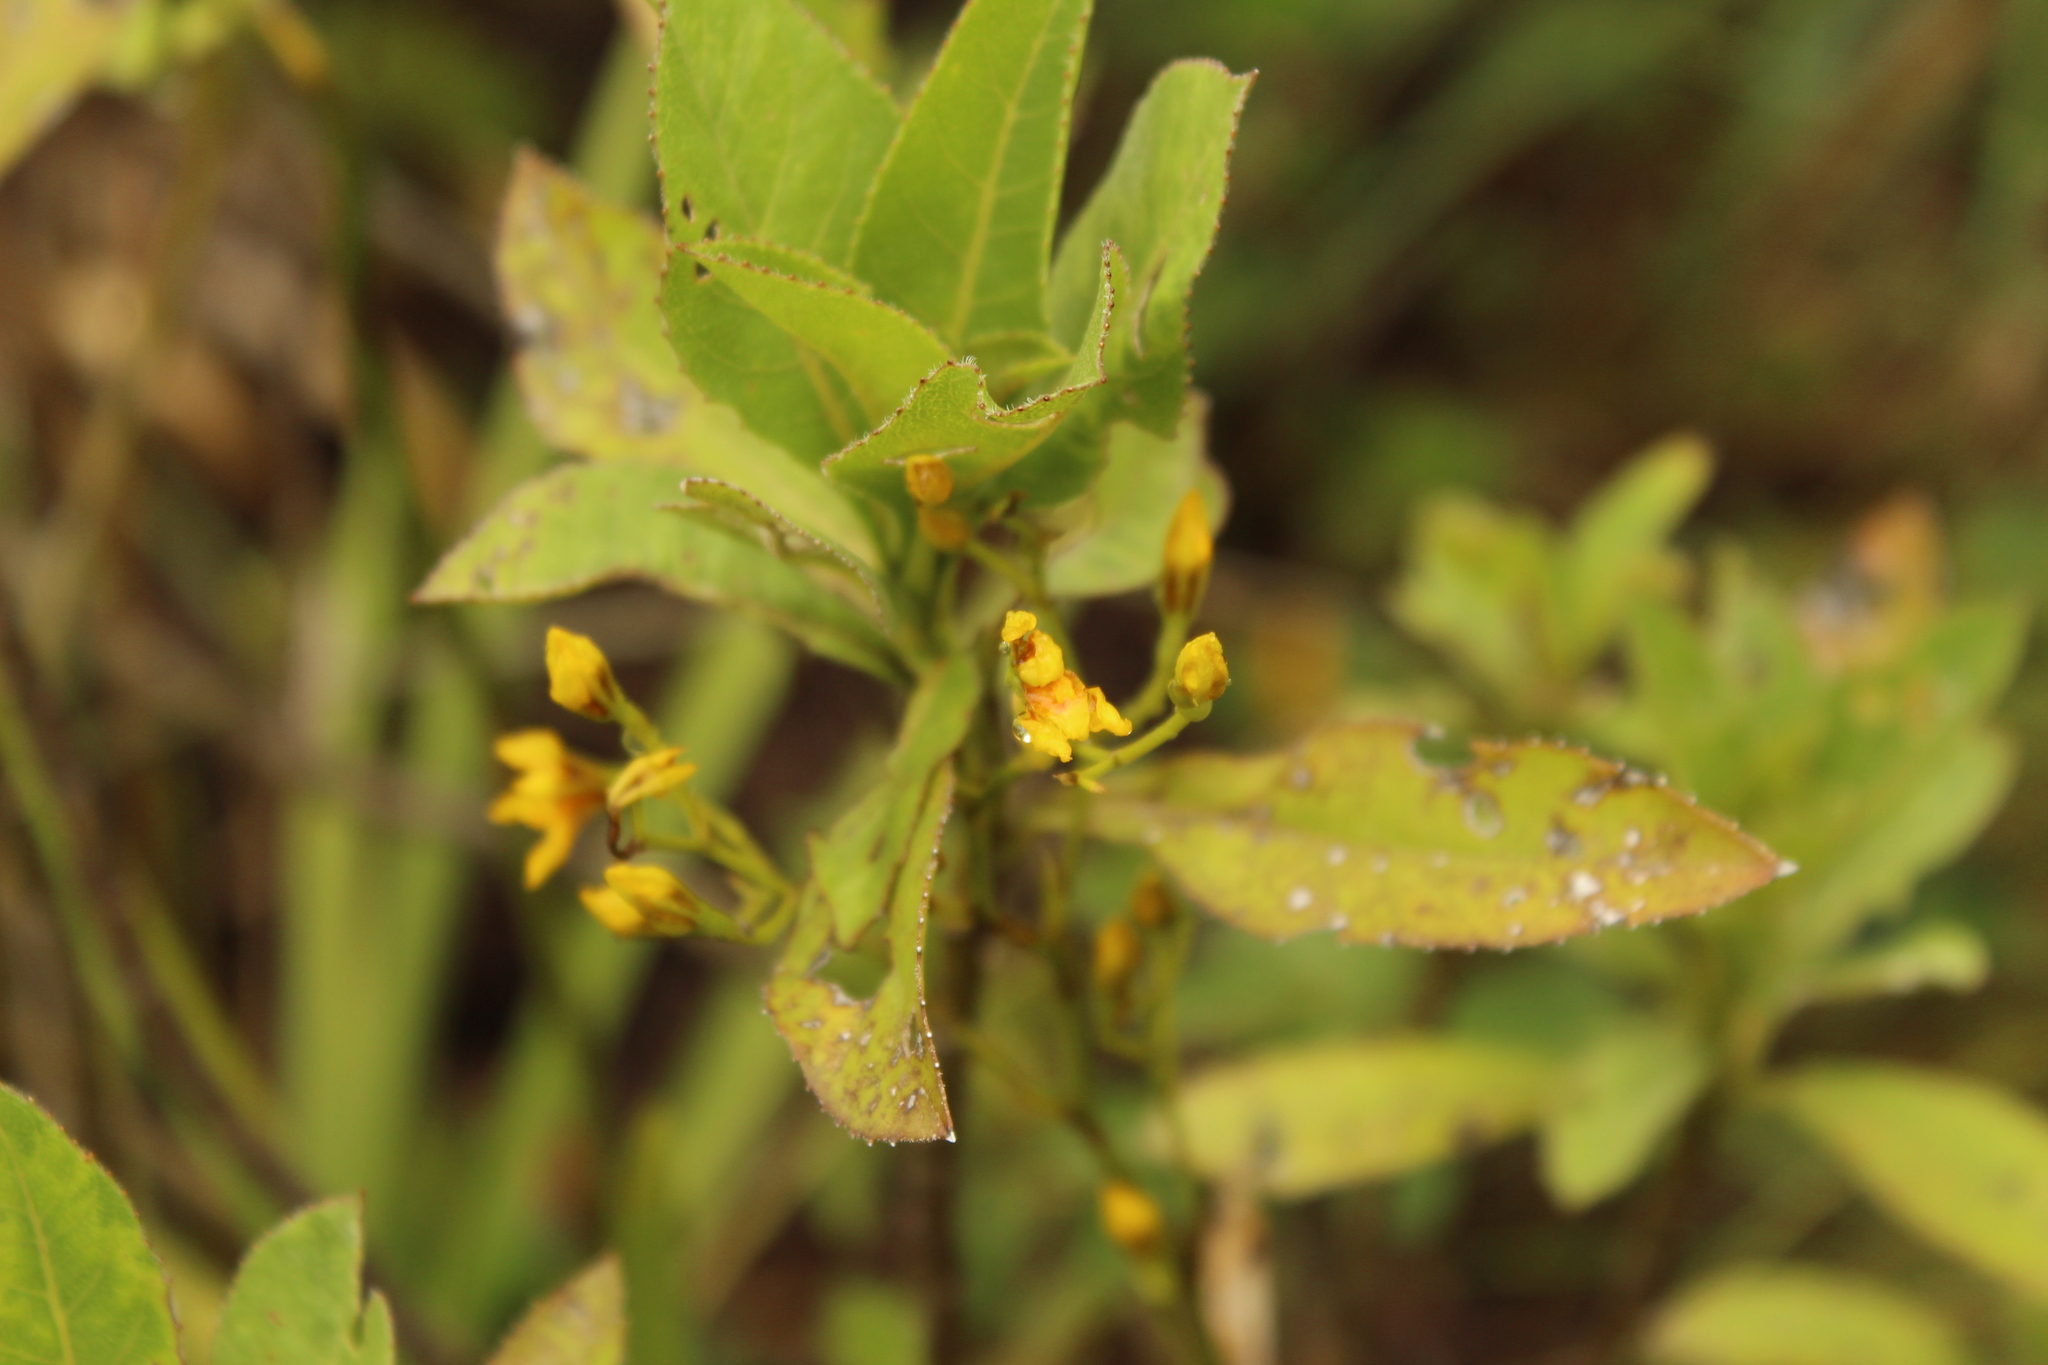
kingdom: Plantae
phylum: Tracheophyta
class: Liliopsida
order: Asparagales
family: Orchidaceae
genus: Cyrtochilum
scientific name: Cyrtochilum densiflorum
